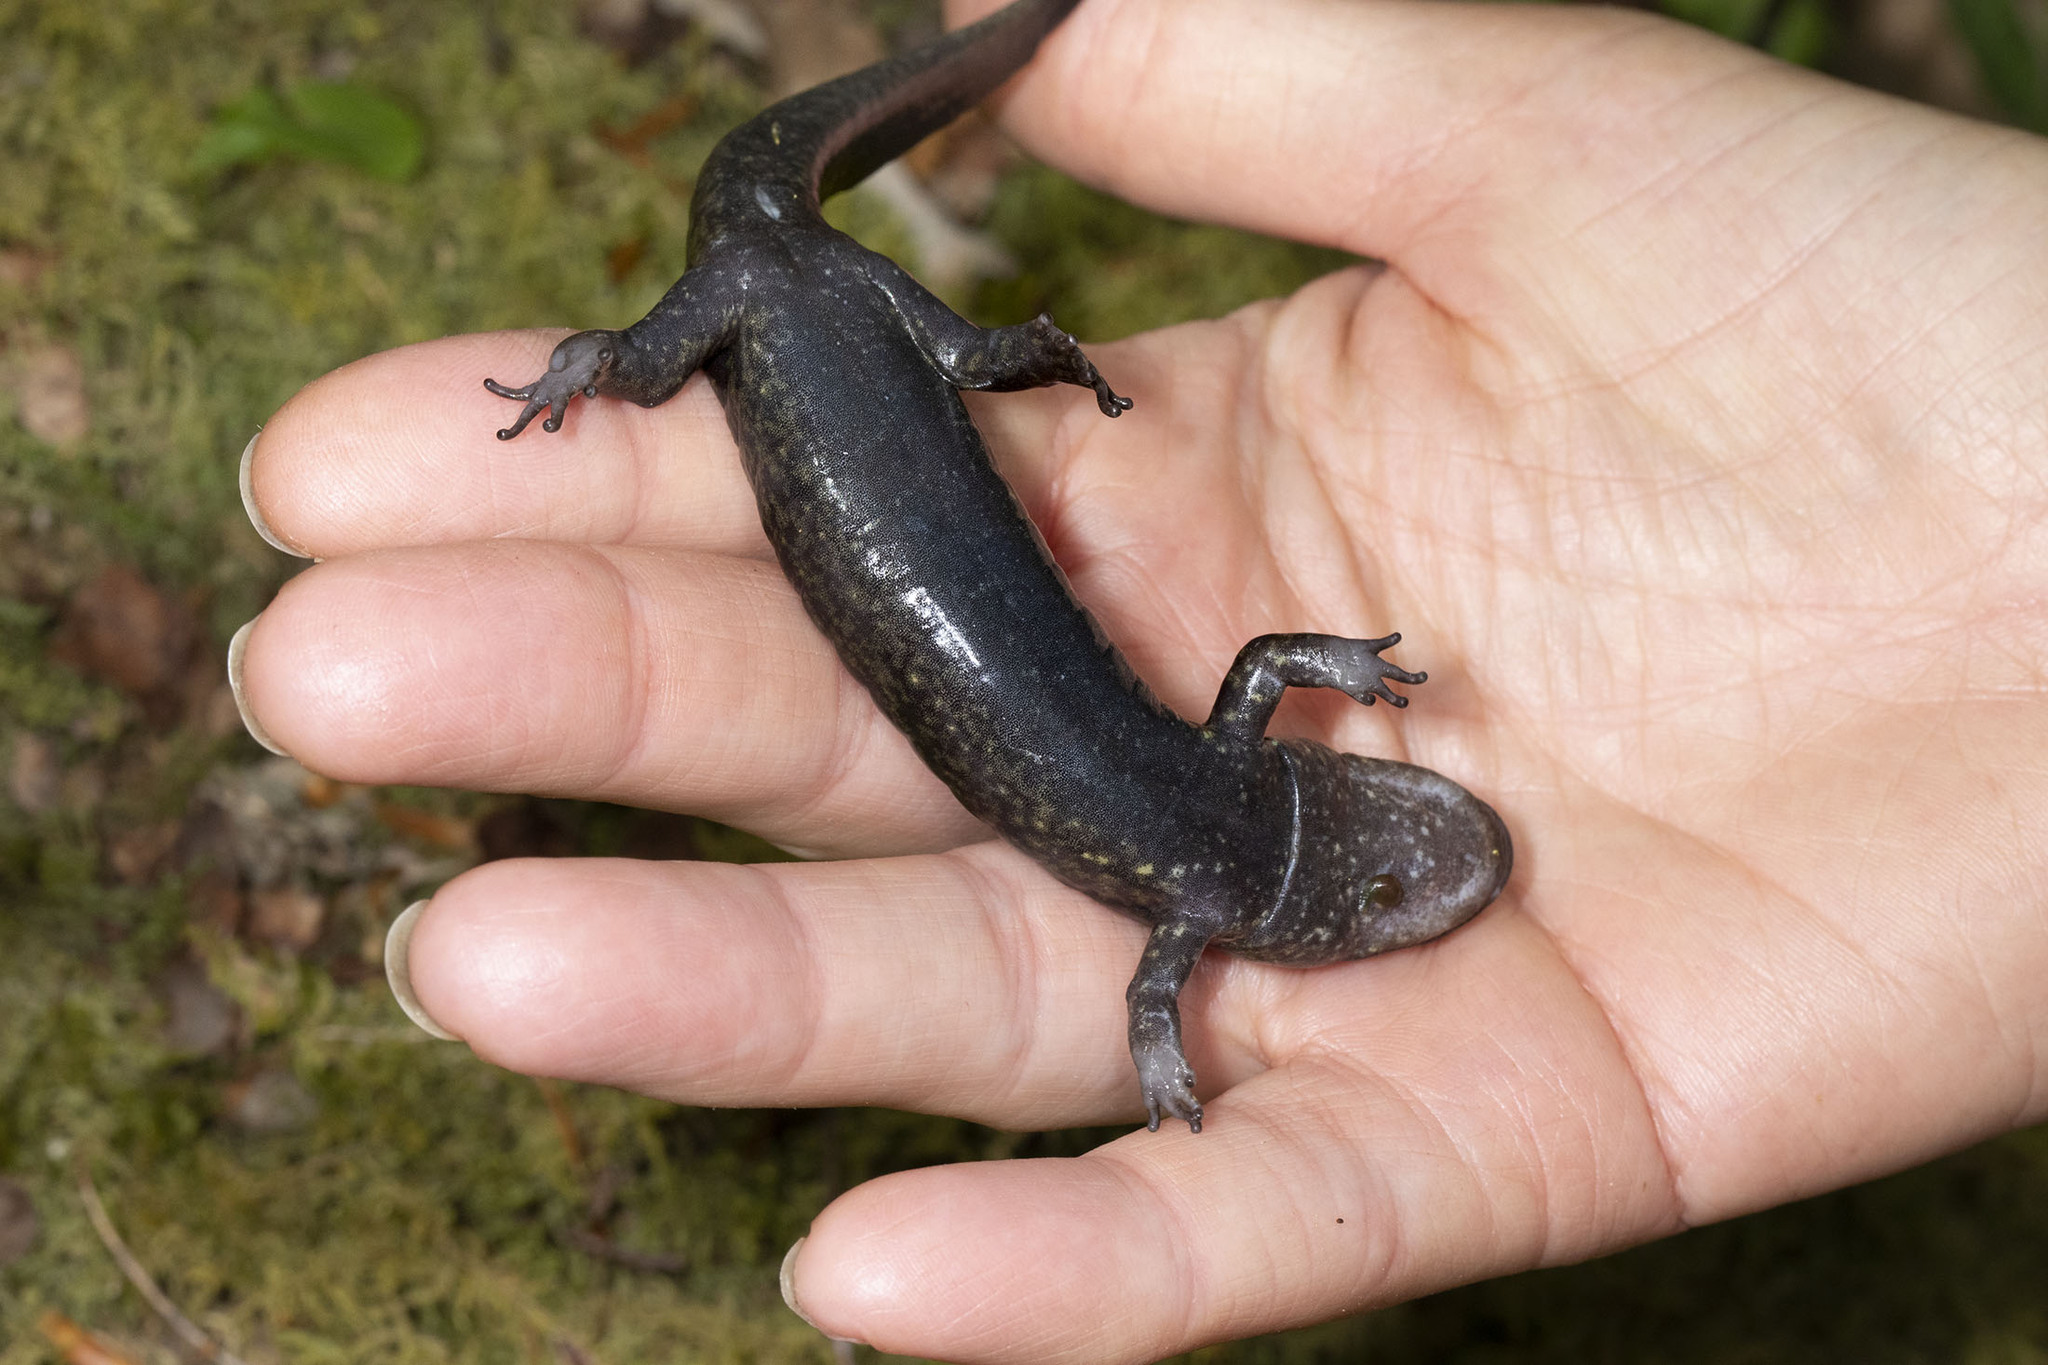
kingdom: Animalia
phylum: Chordata
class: Amphibia
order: Caudata
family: Plethodontidae
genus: Desmognathus
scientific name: Desmognathus
